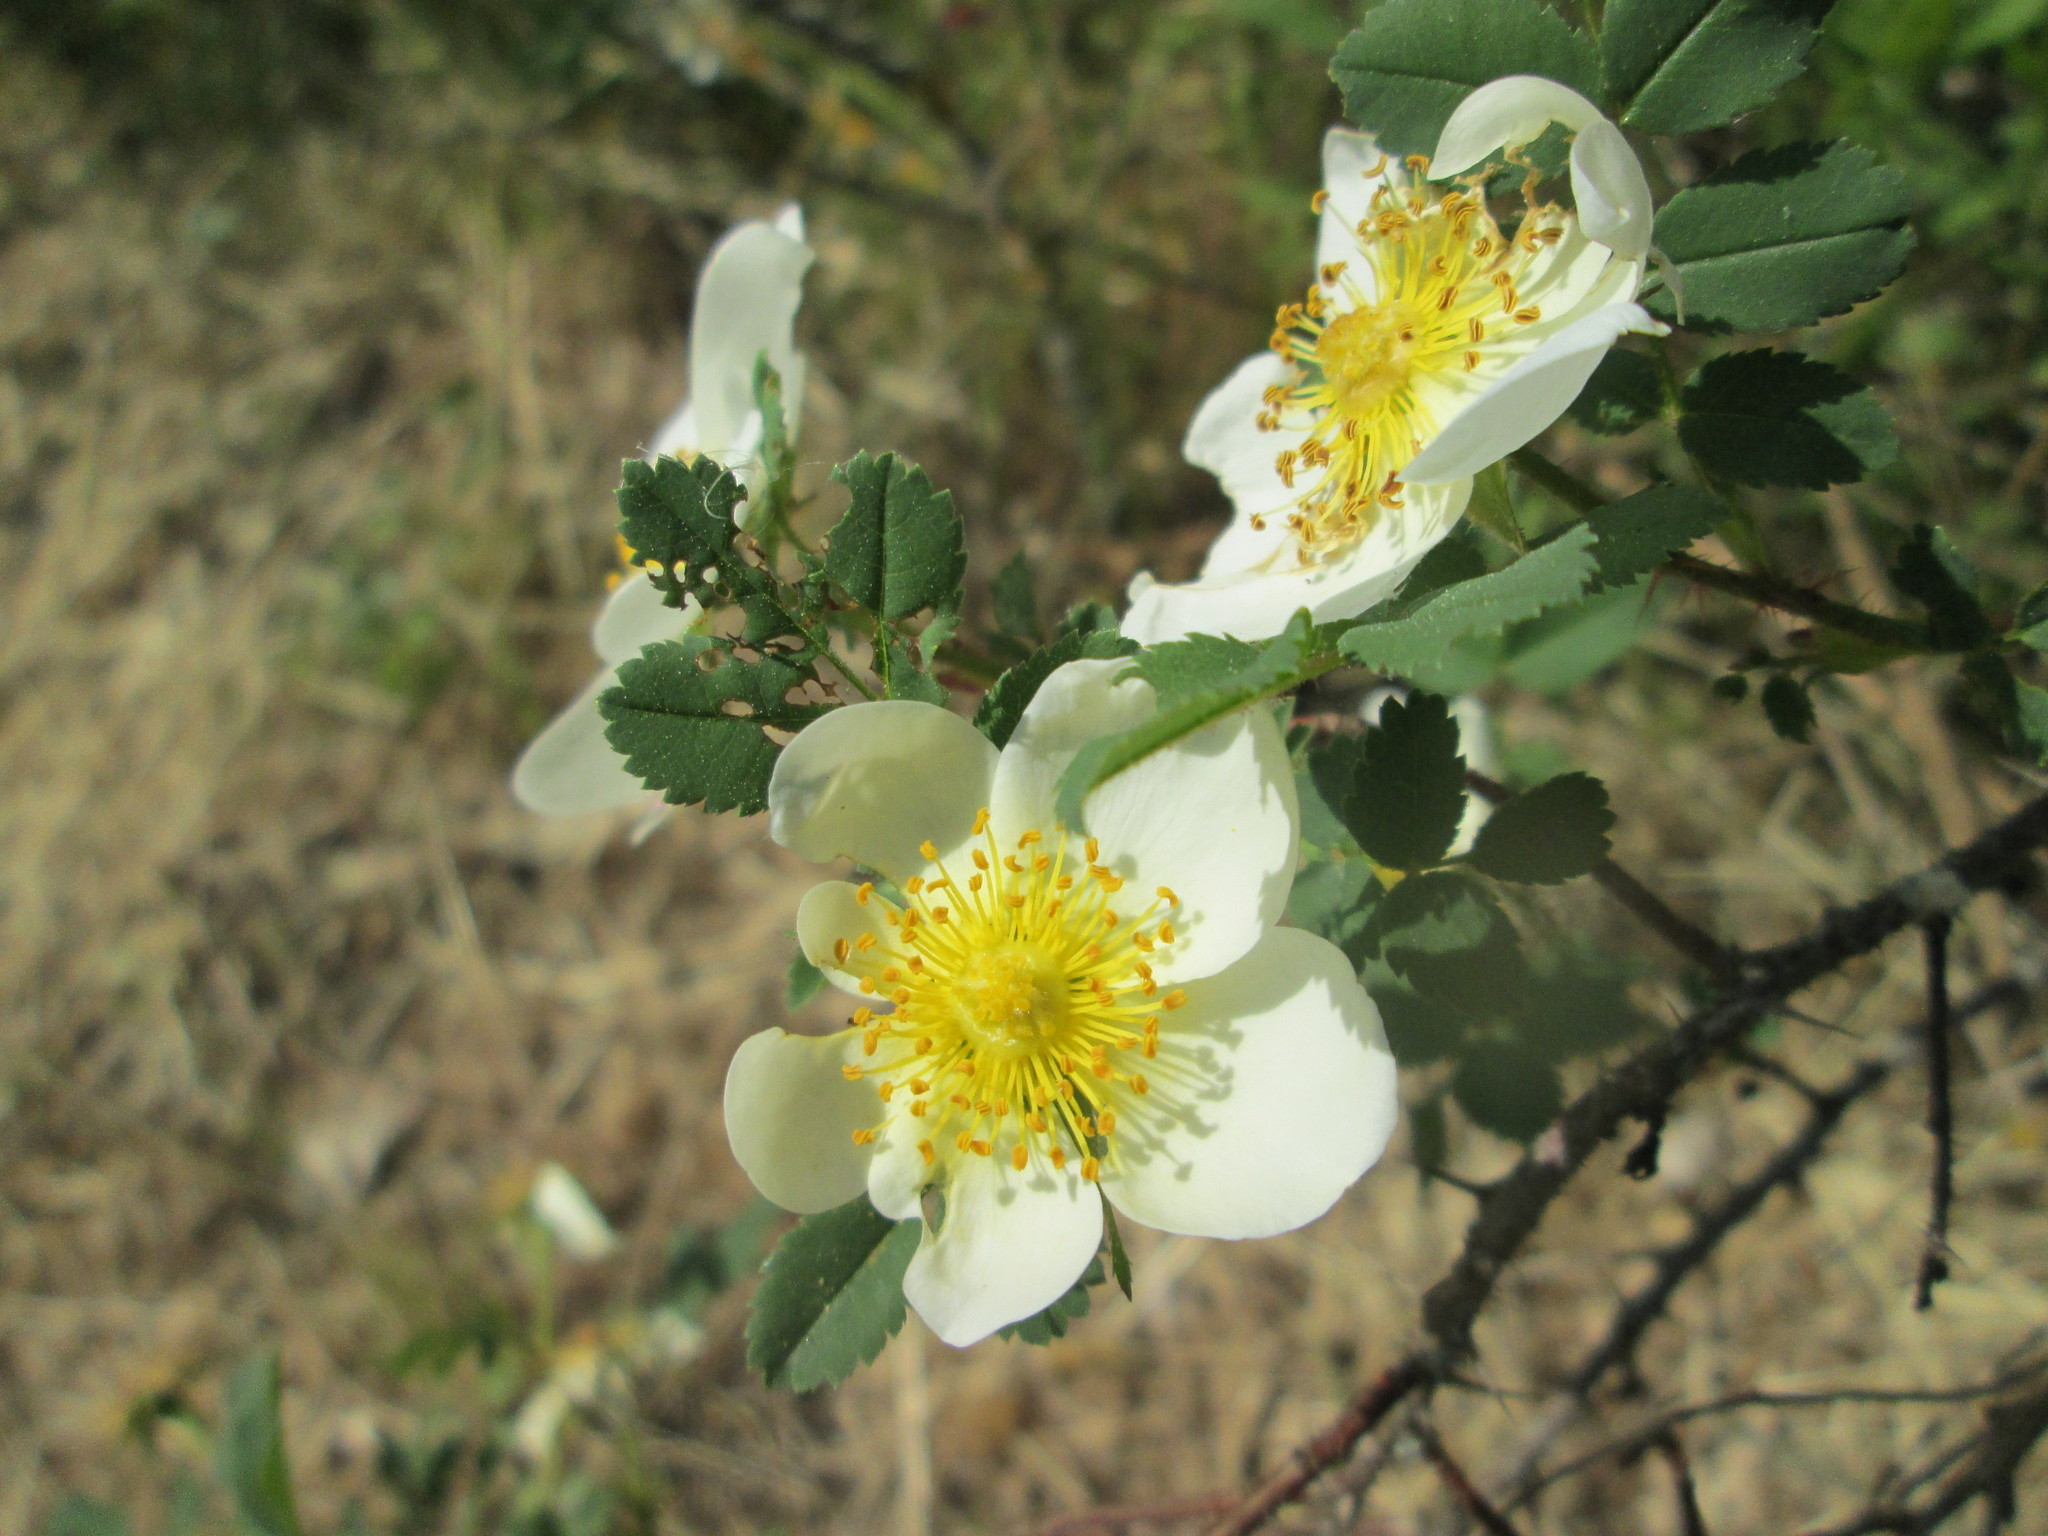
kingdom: Plantae
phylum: Tracheophyta
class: Magnoliopsida
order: Rosales
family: Rosaceae
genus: Rosa
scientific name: Rosa spinosissima
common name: Burnet rose
